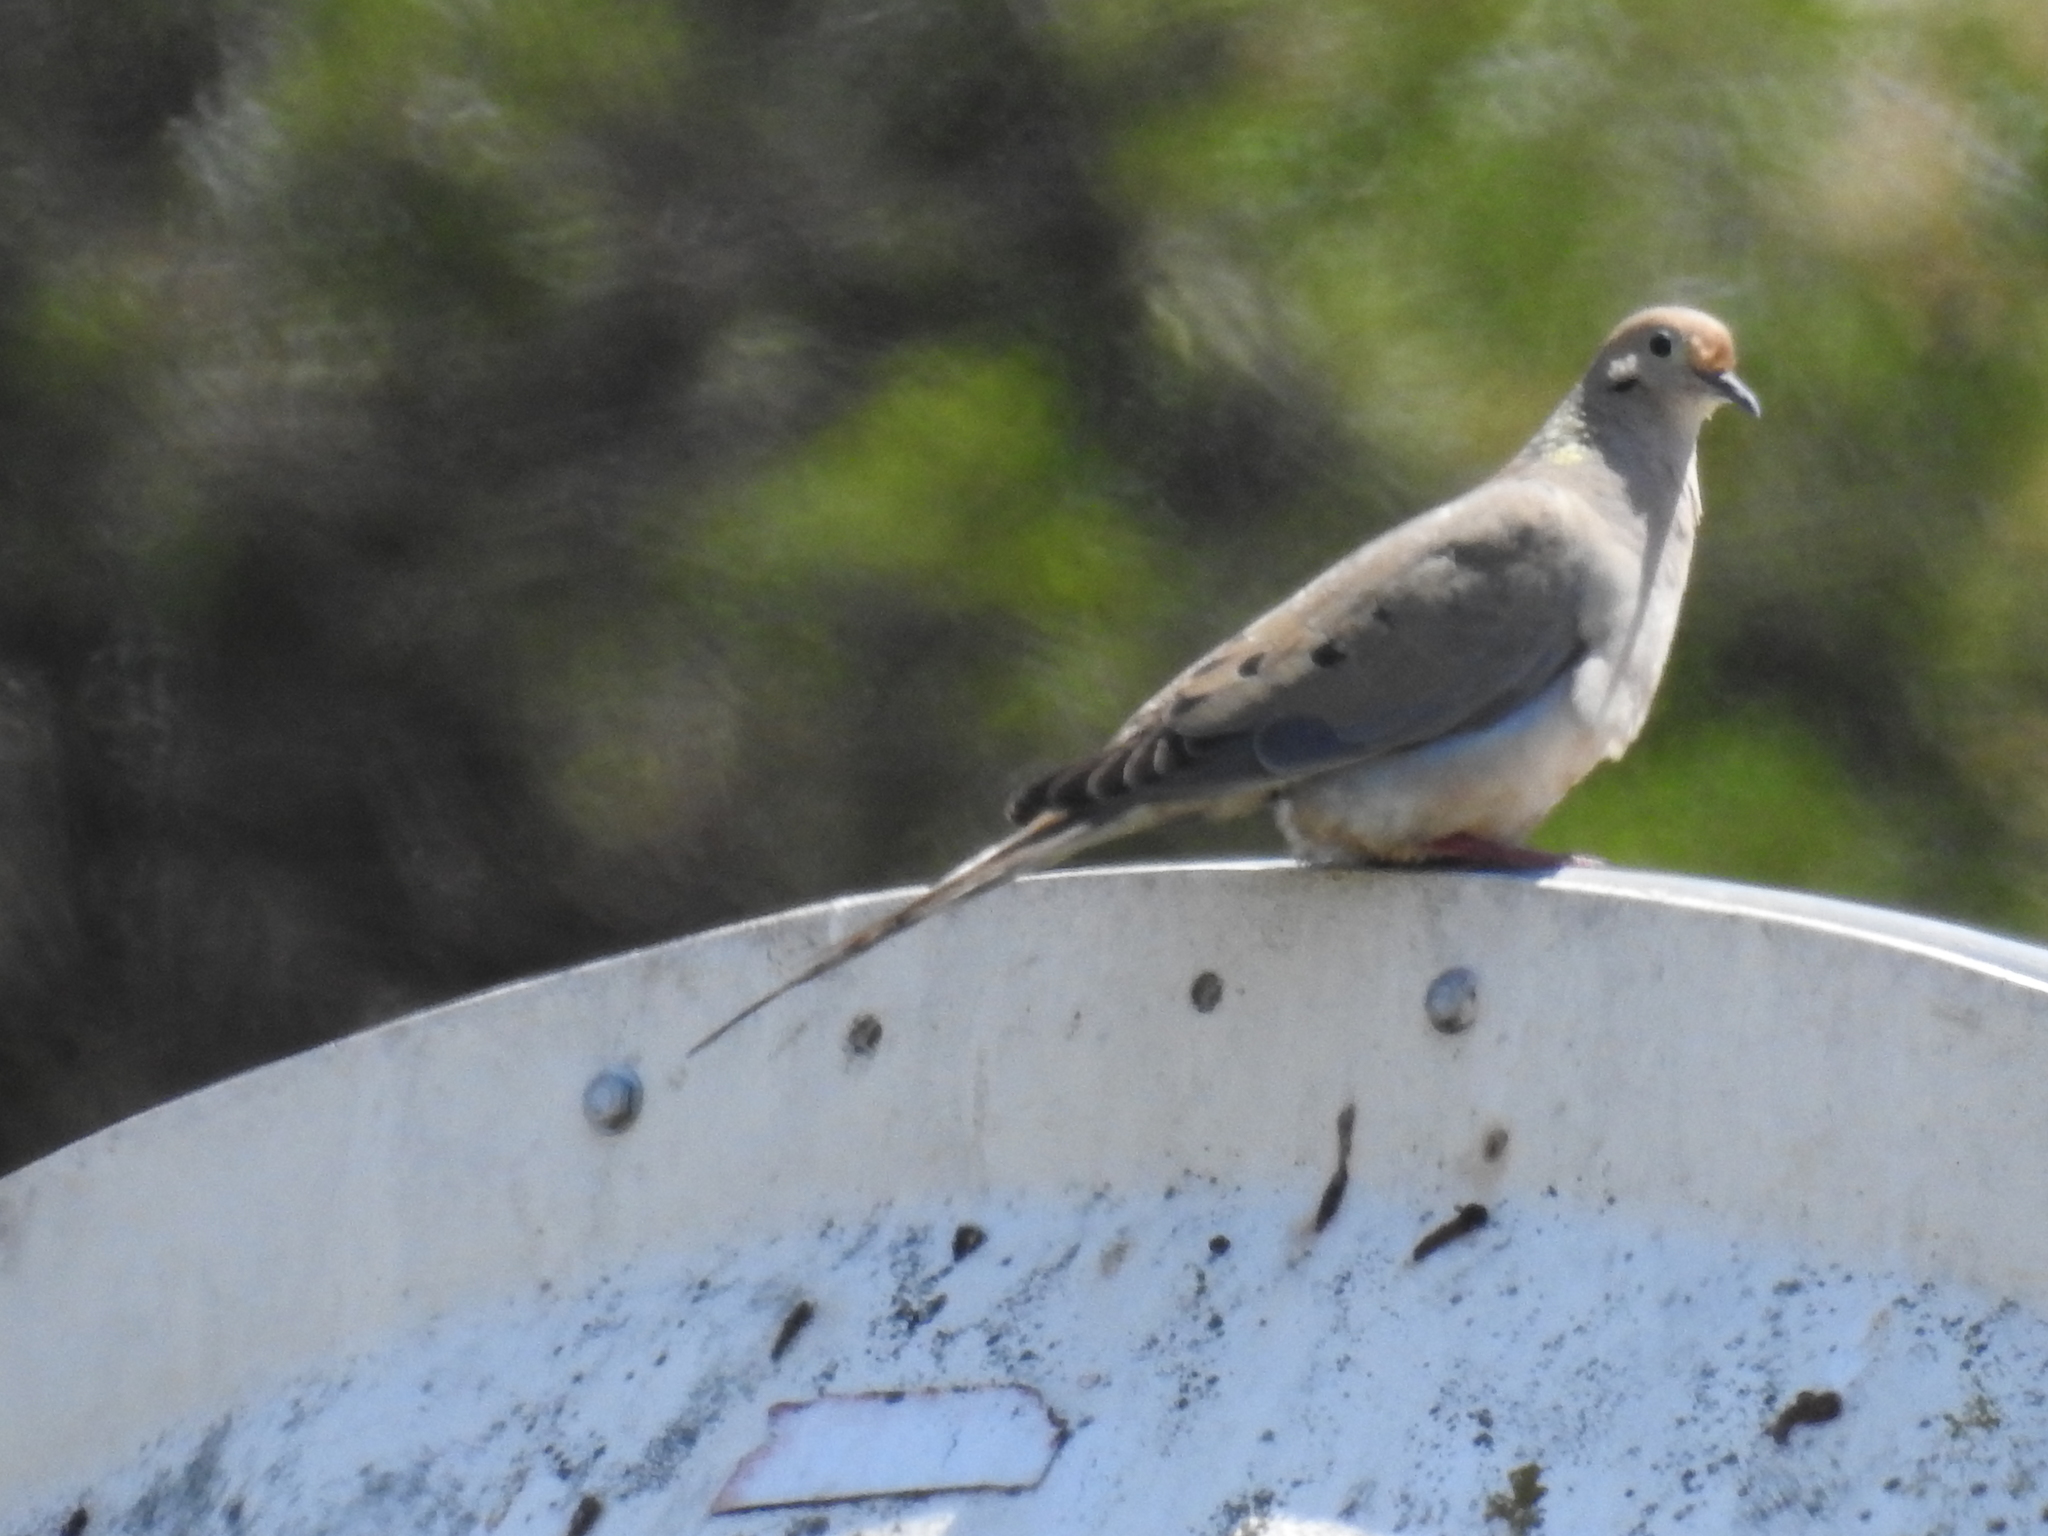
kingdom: Animalia
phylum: Chordata
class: Aves
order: Columbiformes
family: Columbidae
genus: Zenaida
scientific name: Zenaida macroura
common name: Mourning dove
